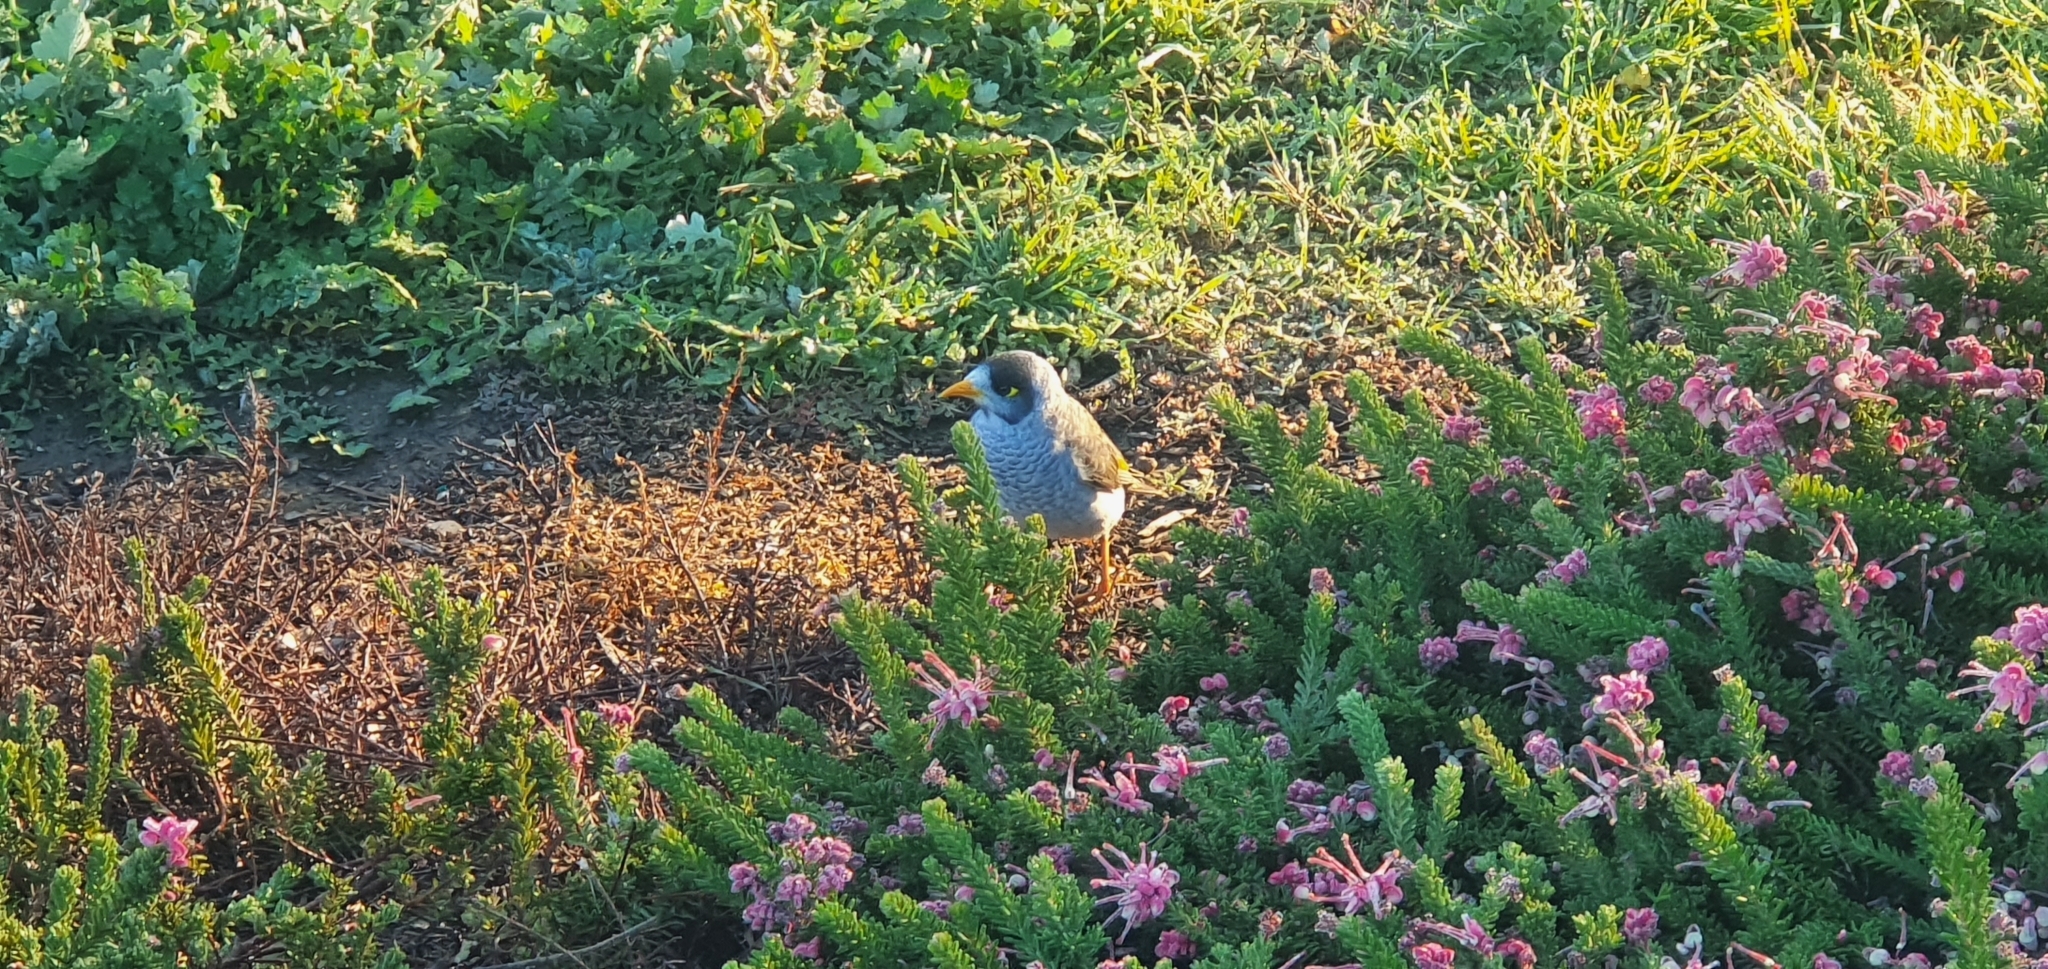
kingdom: Animalia
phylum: Chordata
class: Aves
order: Passeriformes
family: Meliphagidae
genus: Manorina
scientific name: Manorina melanocephala
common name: Noisy miner
